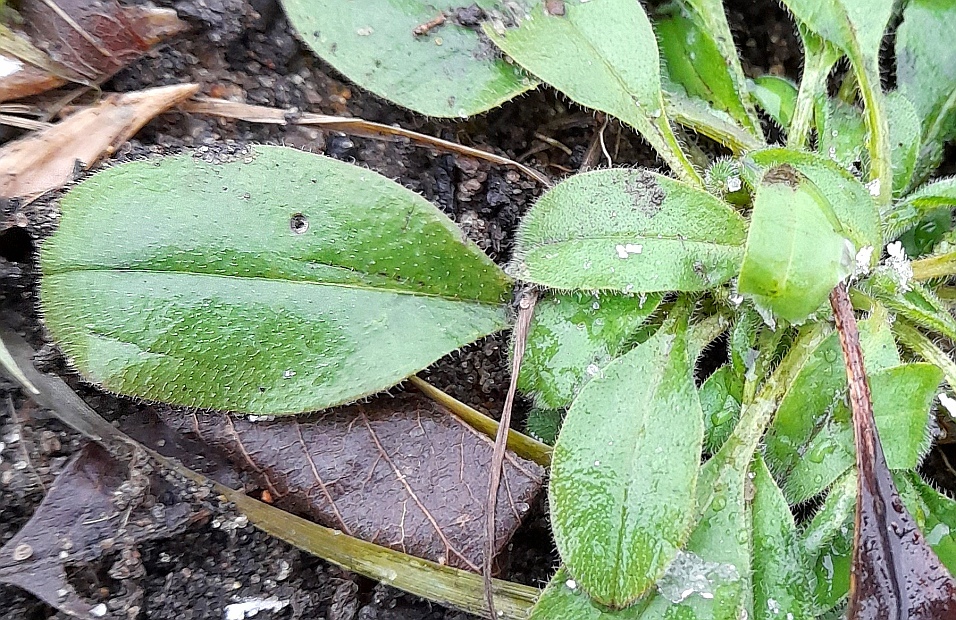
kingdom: Plantae
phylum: Tracheophyta
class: Magnoliopsida
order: Boraginales
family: Boraginaceae
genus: Myosotis
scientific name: Myosotis sparsiflora
